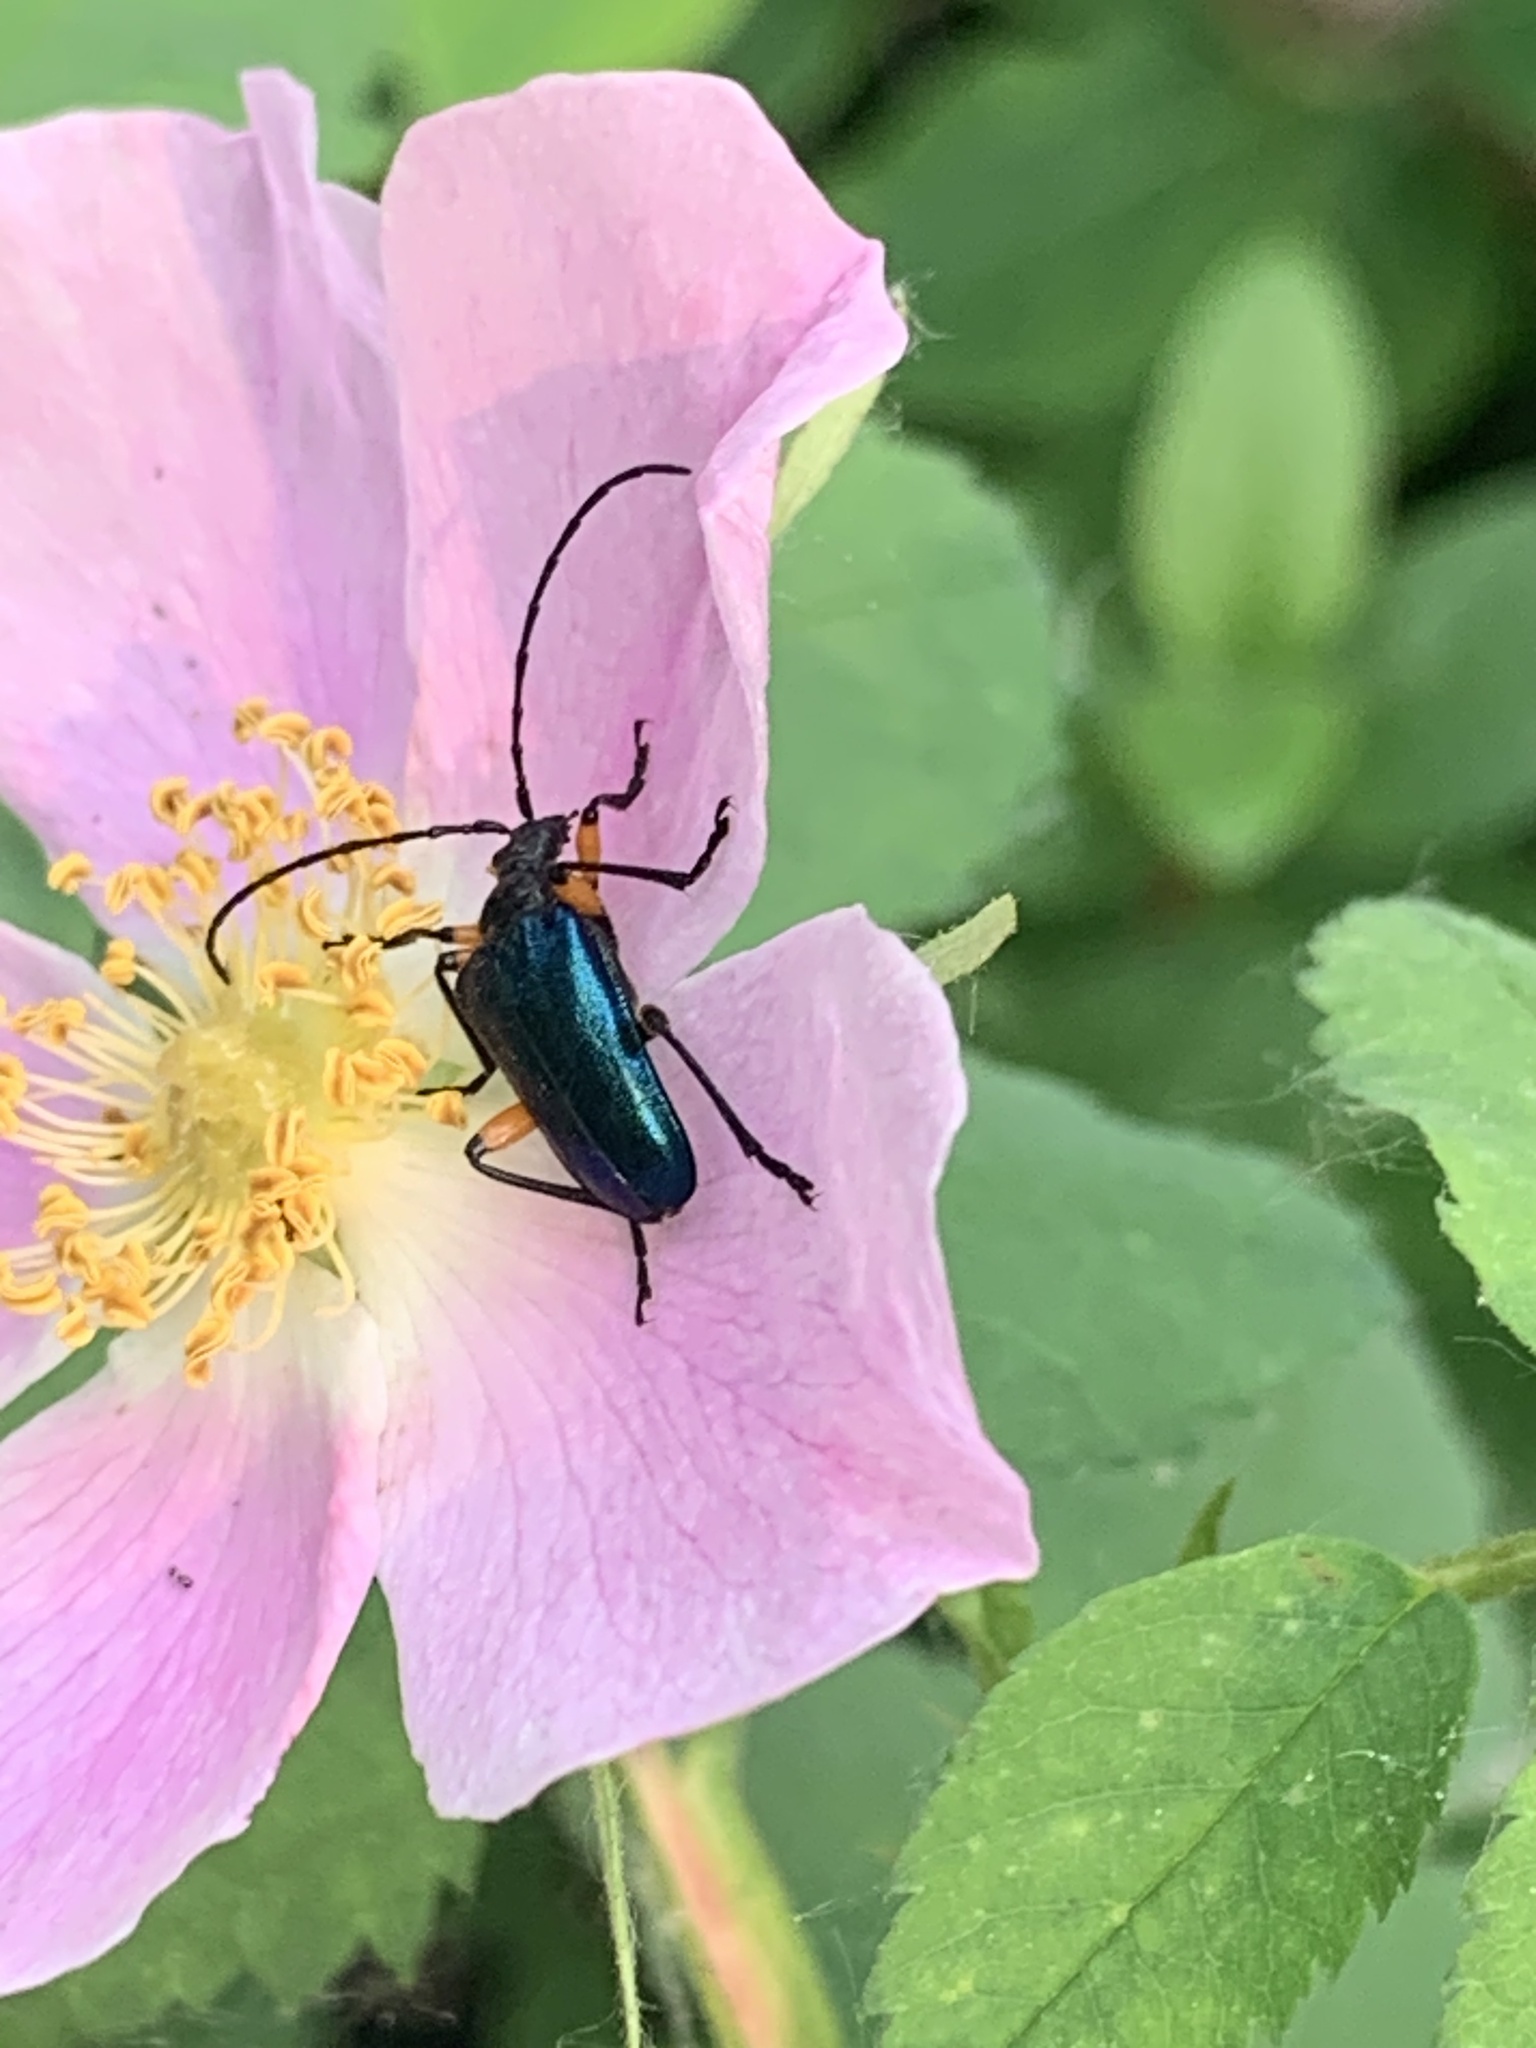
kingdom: Animalia
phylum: Arthropoda
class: Insecta
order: Coleoptera
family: Cerambycidae
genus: Pseudogaurotina
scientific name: Pseudogaurotina cressoni
